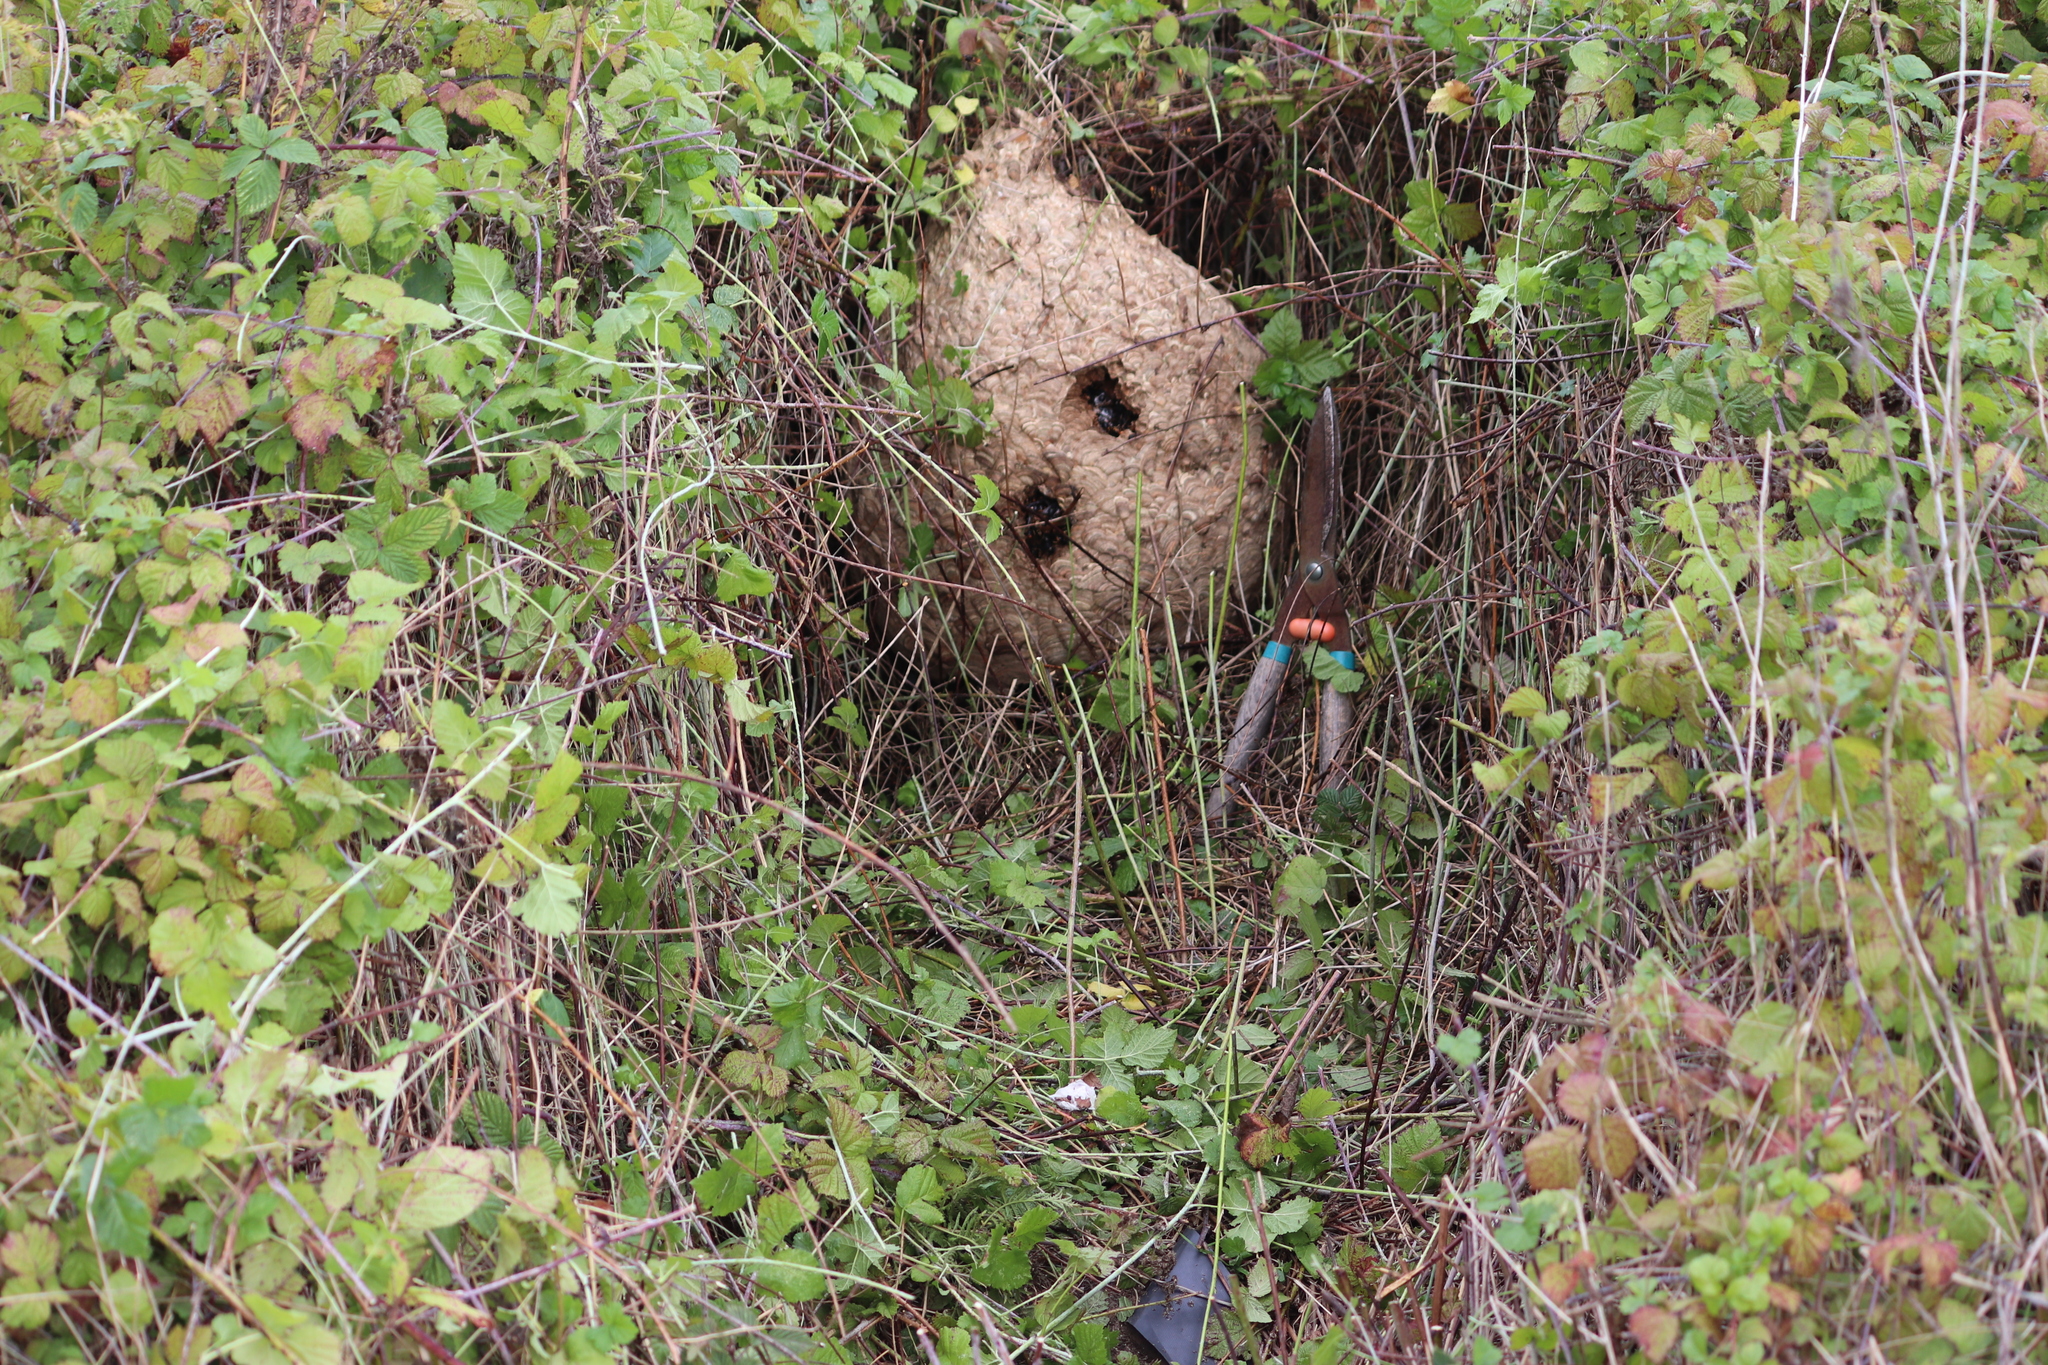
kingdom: Animalia
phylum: Arthropoda
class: Insecta
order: Hymenoptera
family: Vespidae
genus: Vespa
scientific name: Vespa velutina
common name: Asian hornet
